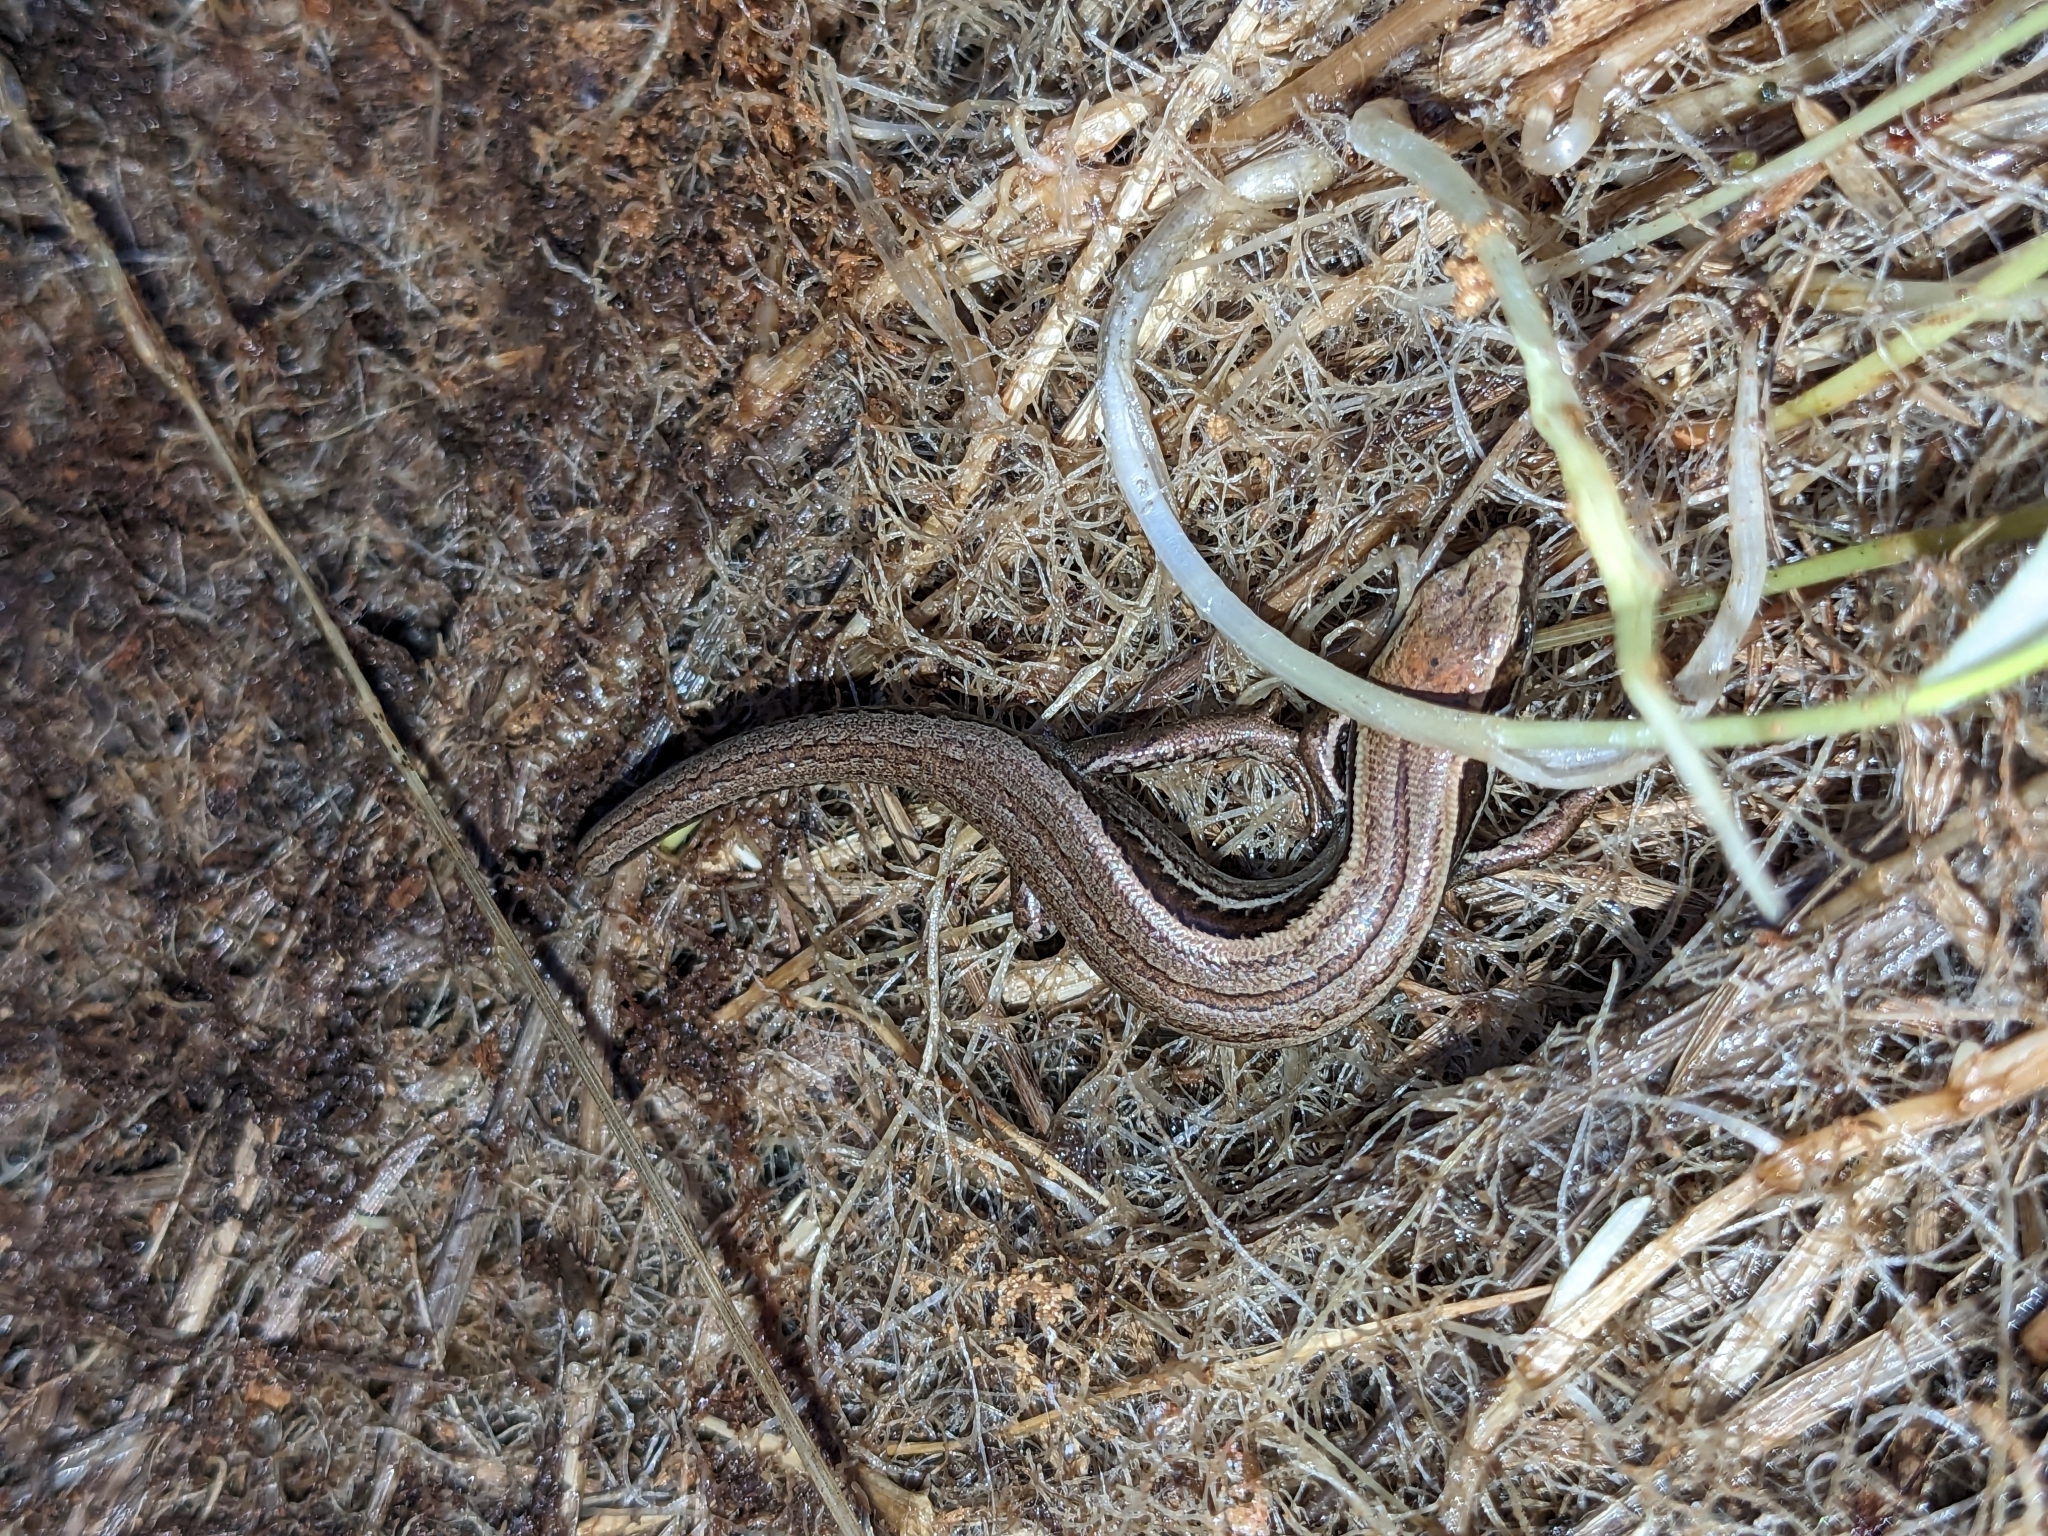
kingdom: Animalia
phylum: Chordata
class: Squamata
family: Scincidae
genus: Oligosoma
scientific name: Oligosoma polychroma
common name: Common new zealand skink
